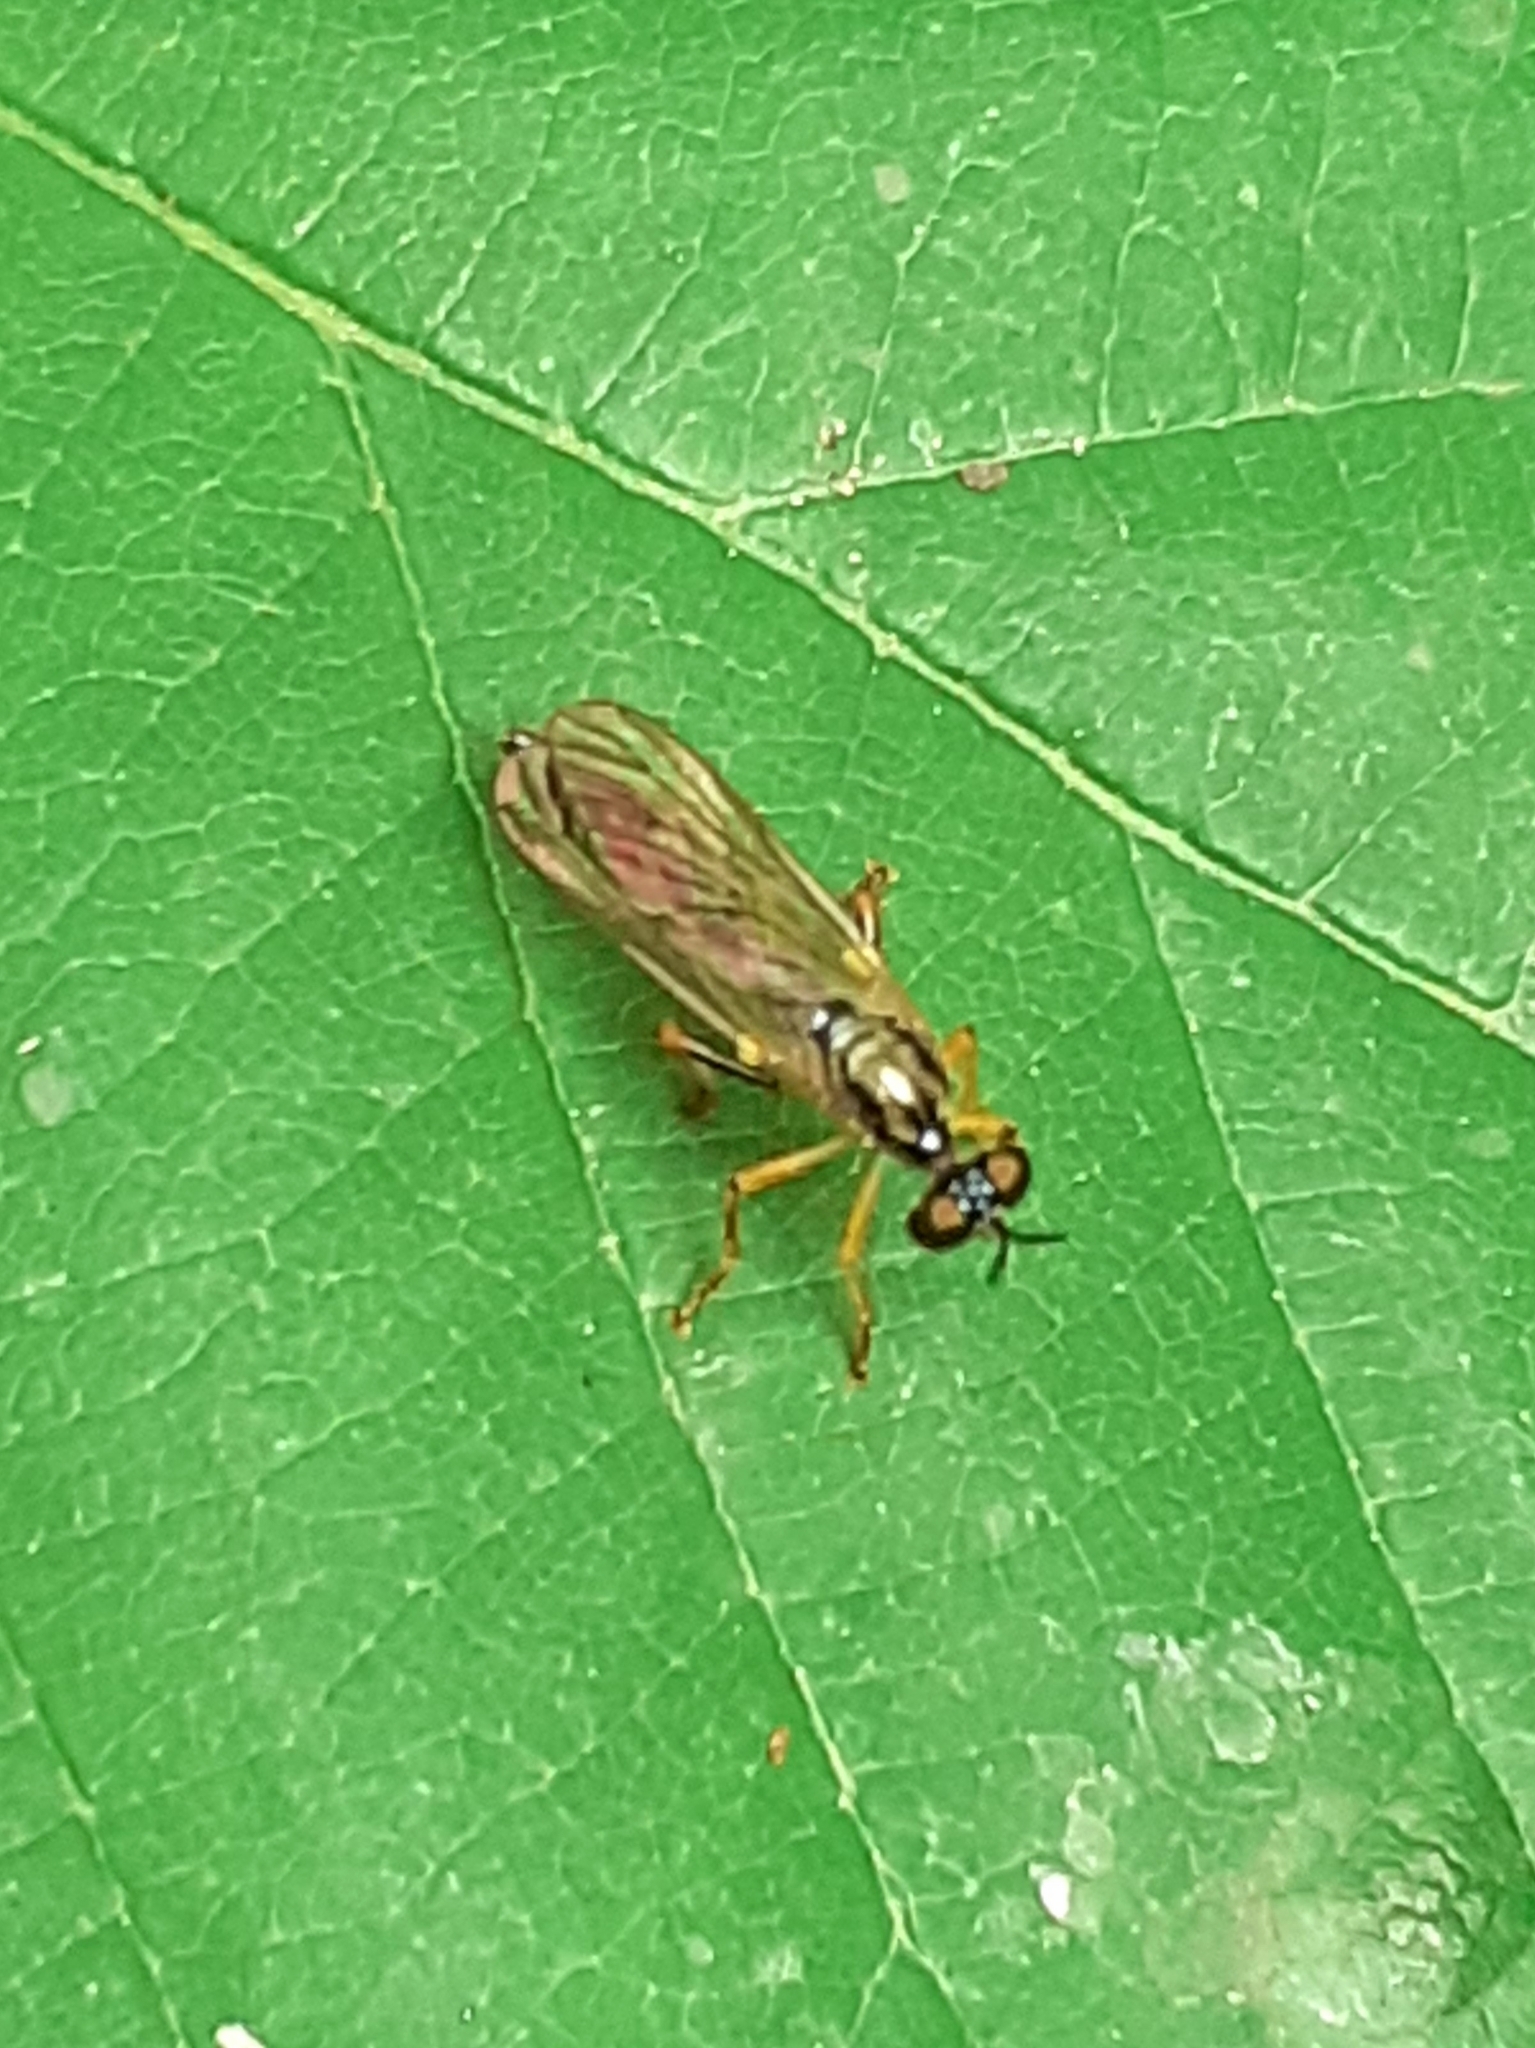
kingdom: Animalia
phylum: Arthropoda
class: Insecta
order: Diptera
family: Asilidae
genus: Dioctria
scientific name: Dioctria linearis
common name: Small yellow-legged robberfly
